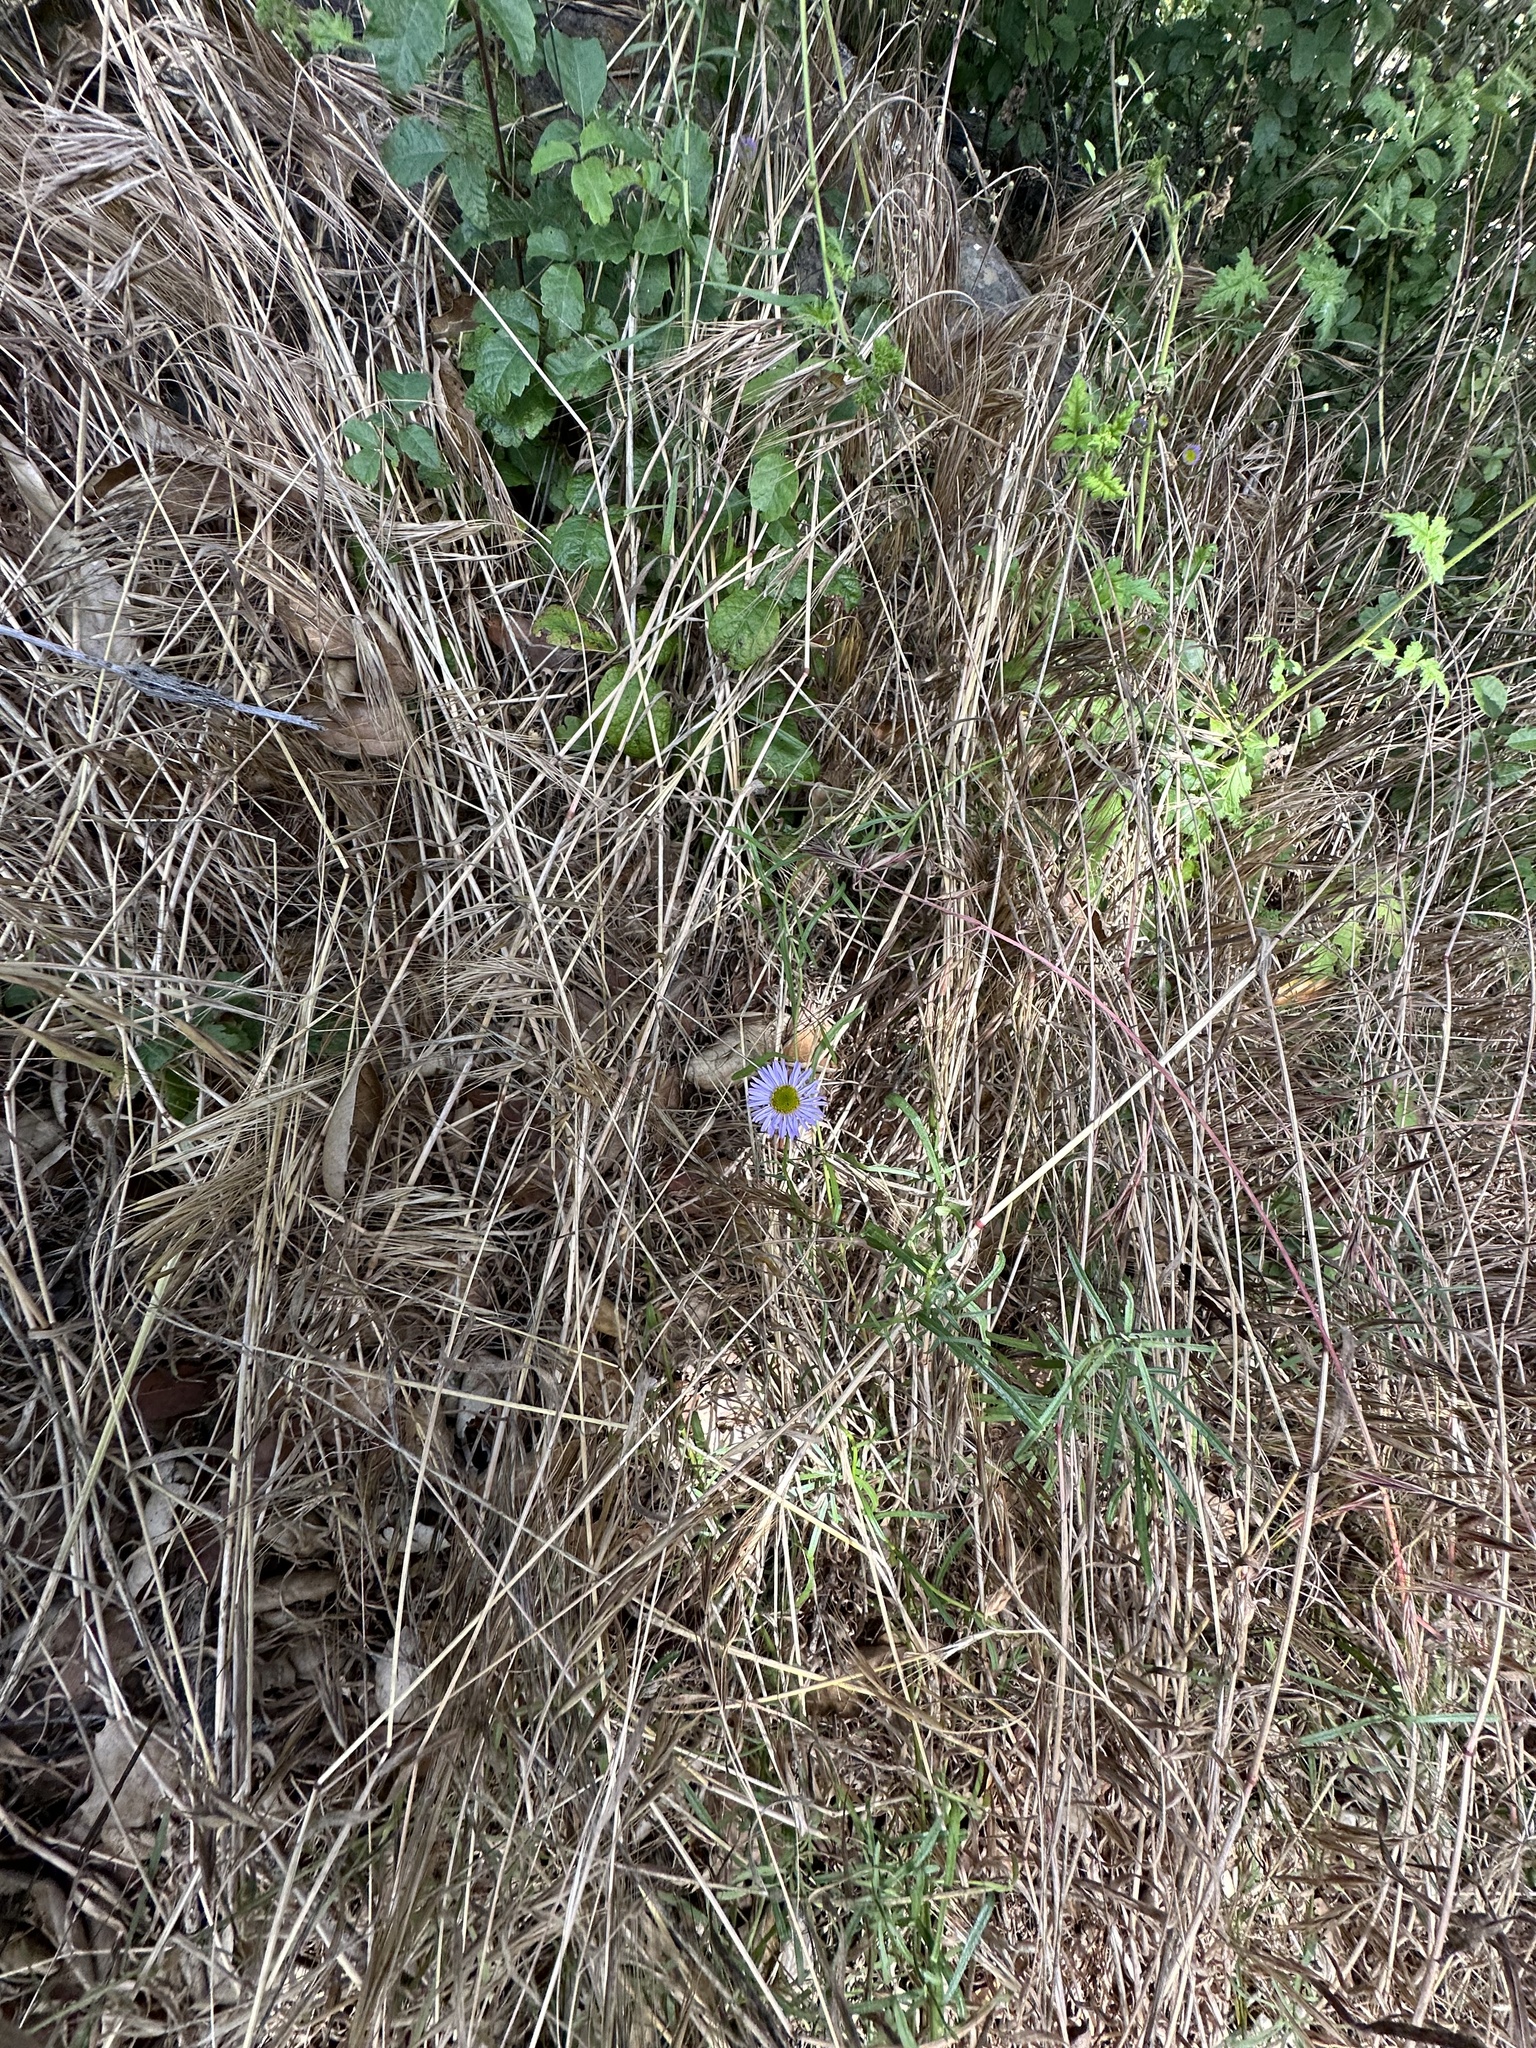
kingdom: Plantae
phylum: Tracheophyta
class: Magnoliopsida
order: Asterales
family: Asteraceae
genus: Erigeron
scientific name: Erigeron foliosus
